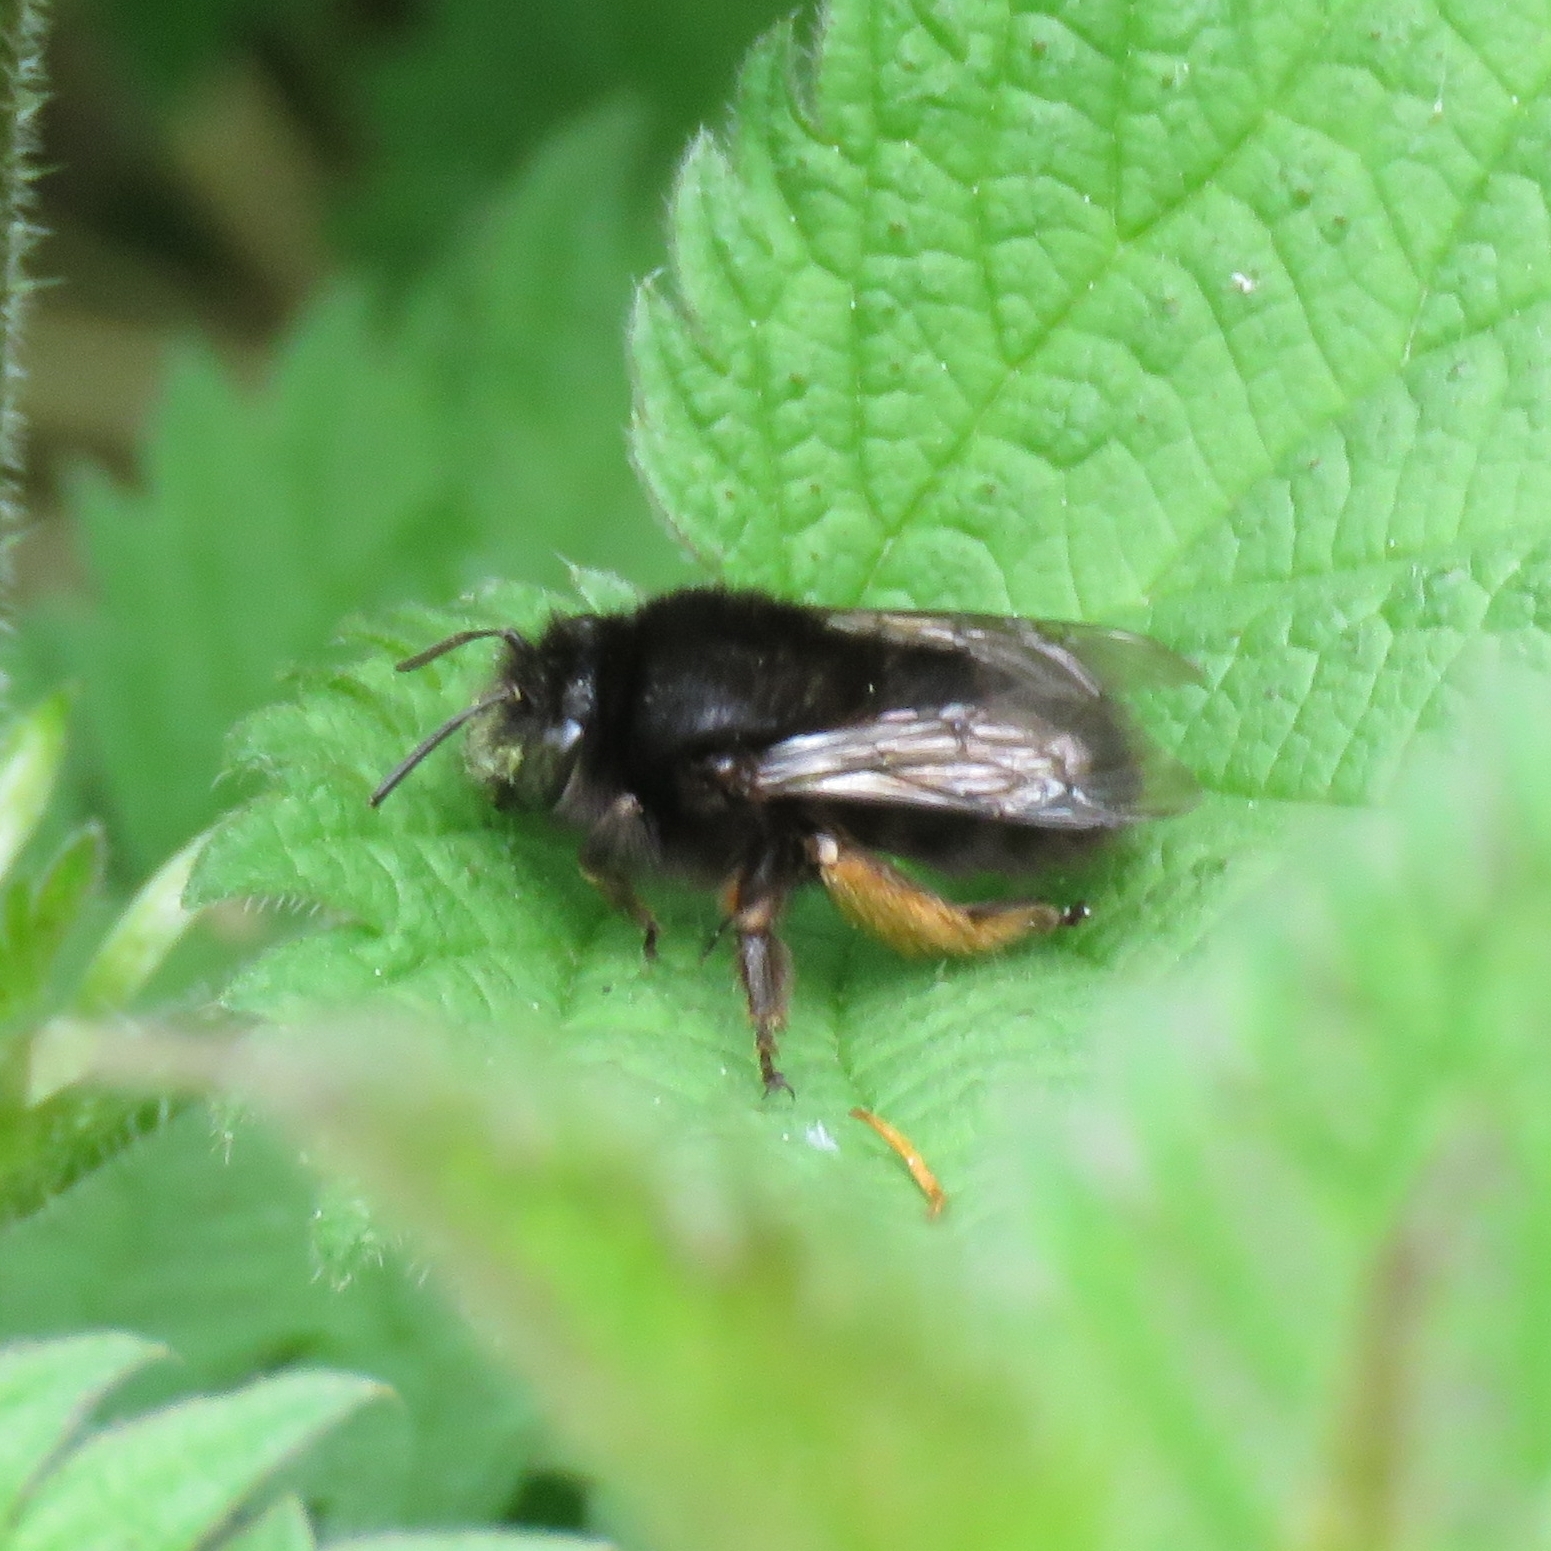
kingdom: Animalia
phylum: Arthropoda
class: Insecta
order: Hymenoptera
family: Apidae
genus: Anthophora
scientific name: Anthophora plumipes
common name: Hairy-footed flower bee
